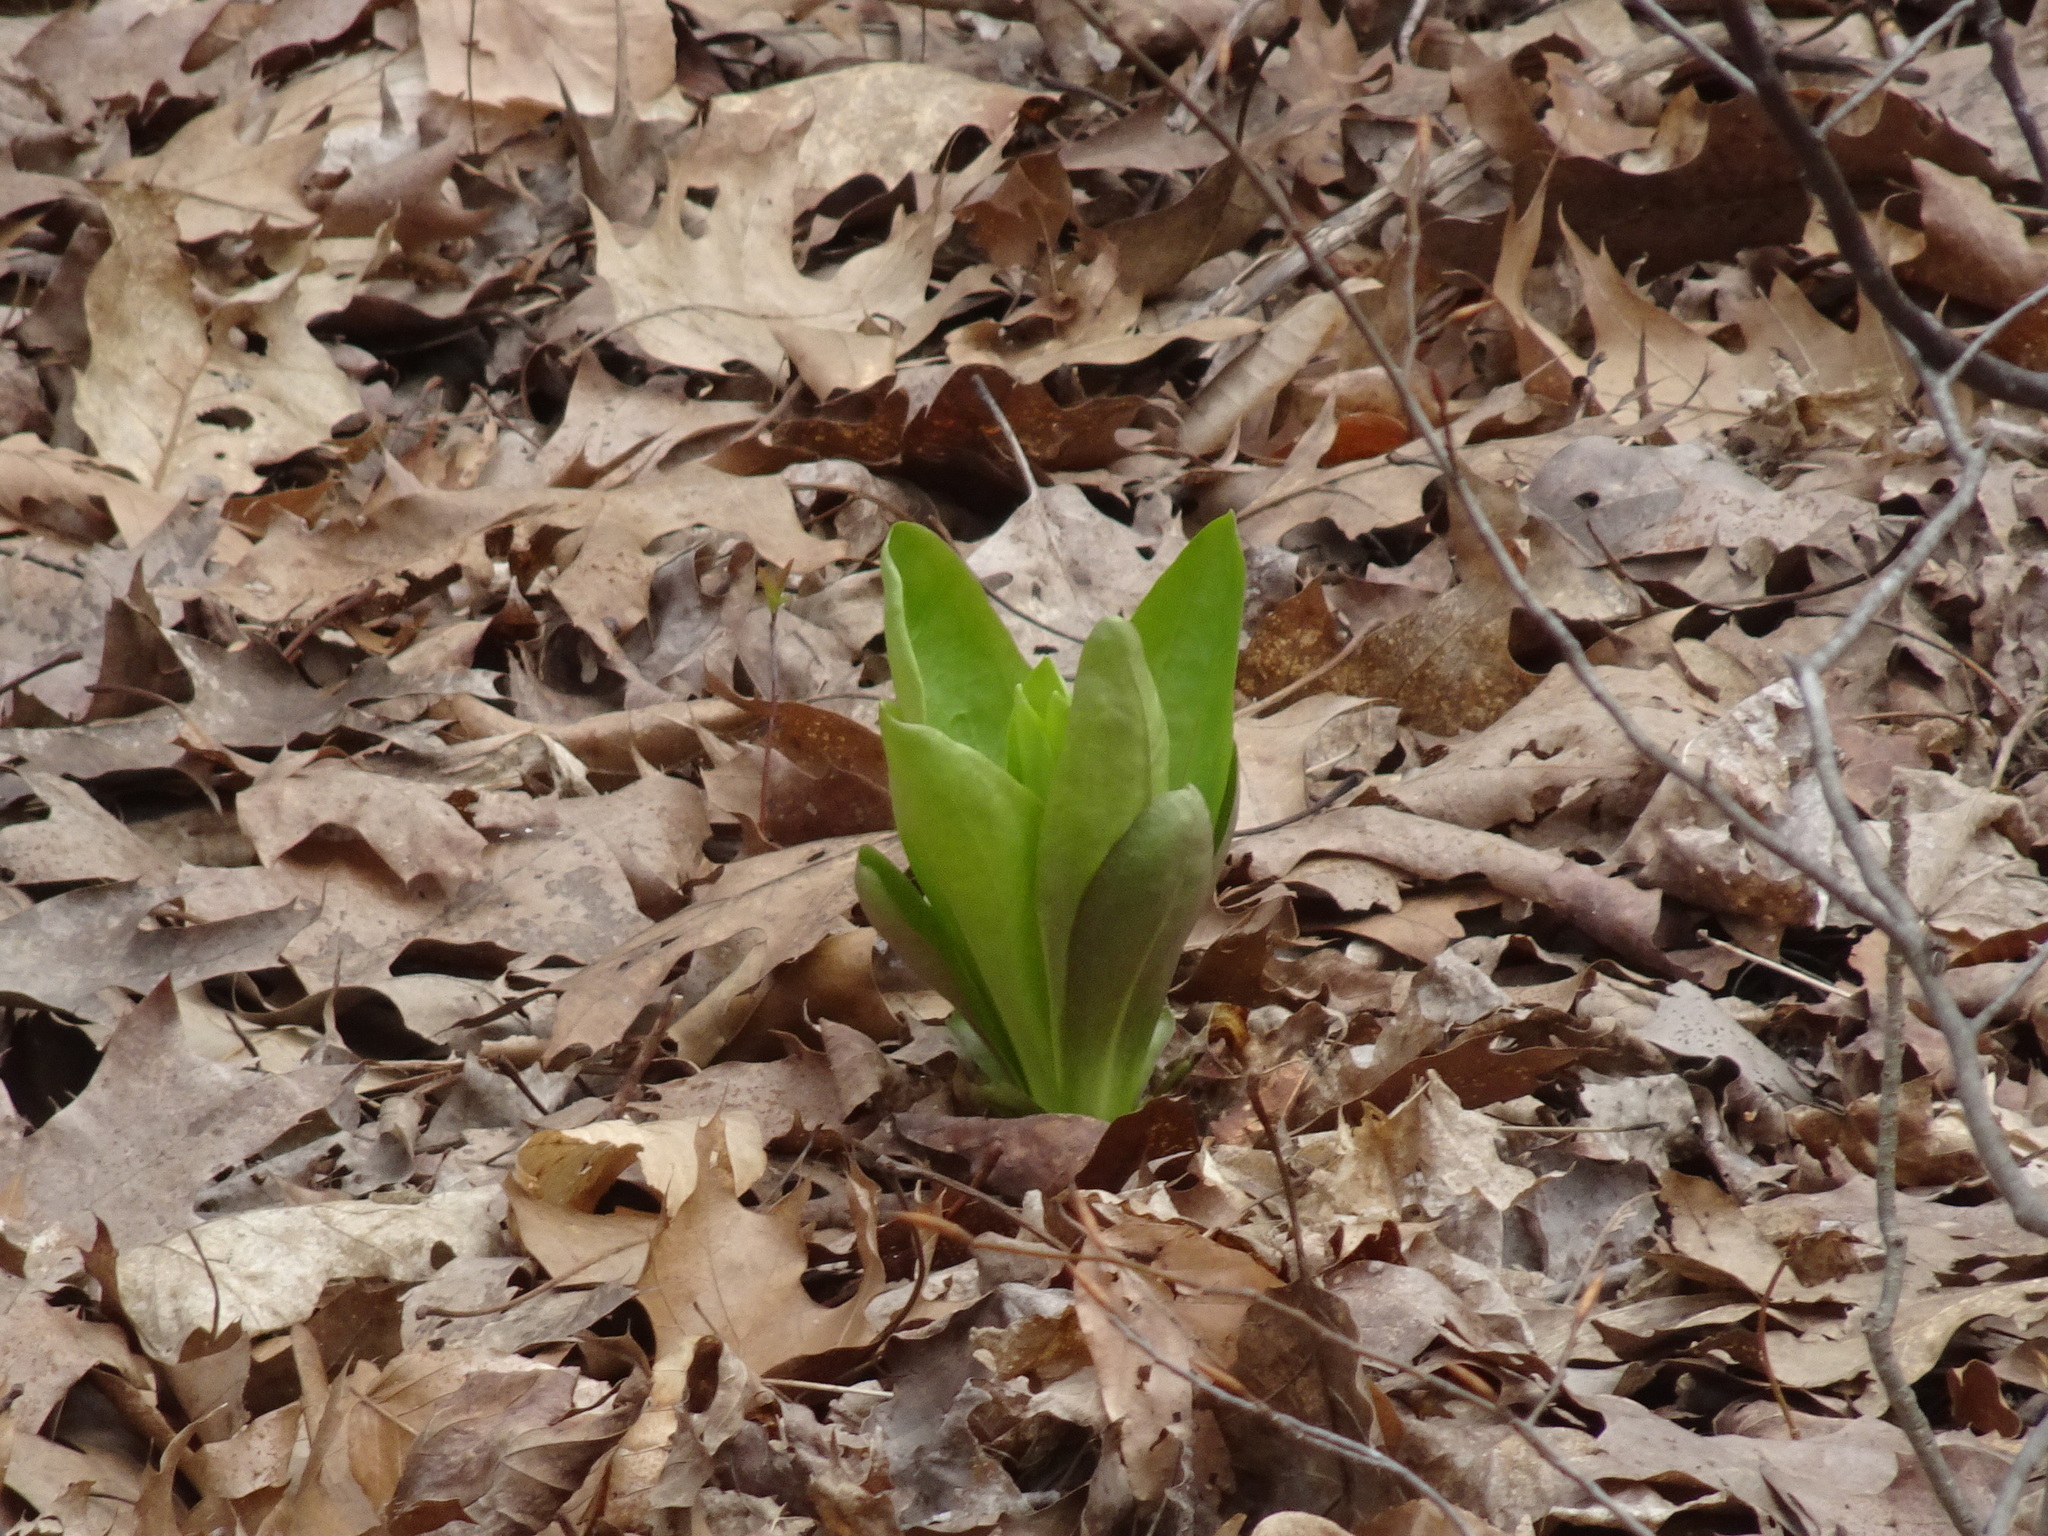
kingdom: Plantae
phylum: Tracheophyta
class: Magnoliopsida
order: Gentianales
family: Gentianaceae
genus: Frasera
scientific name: Frasera caroliniensis
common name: American columbo
